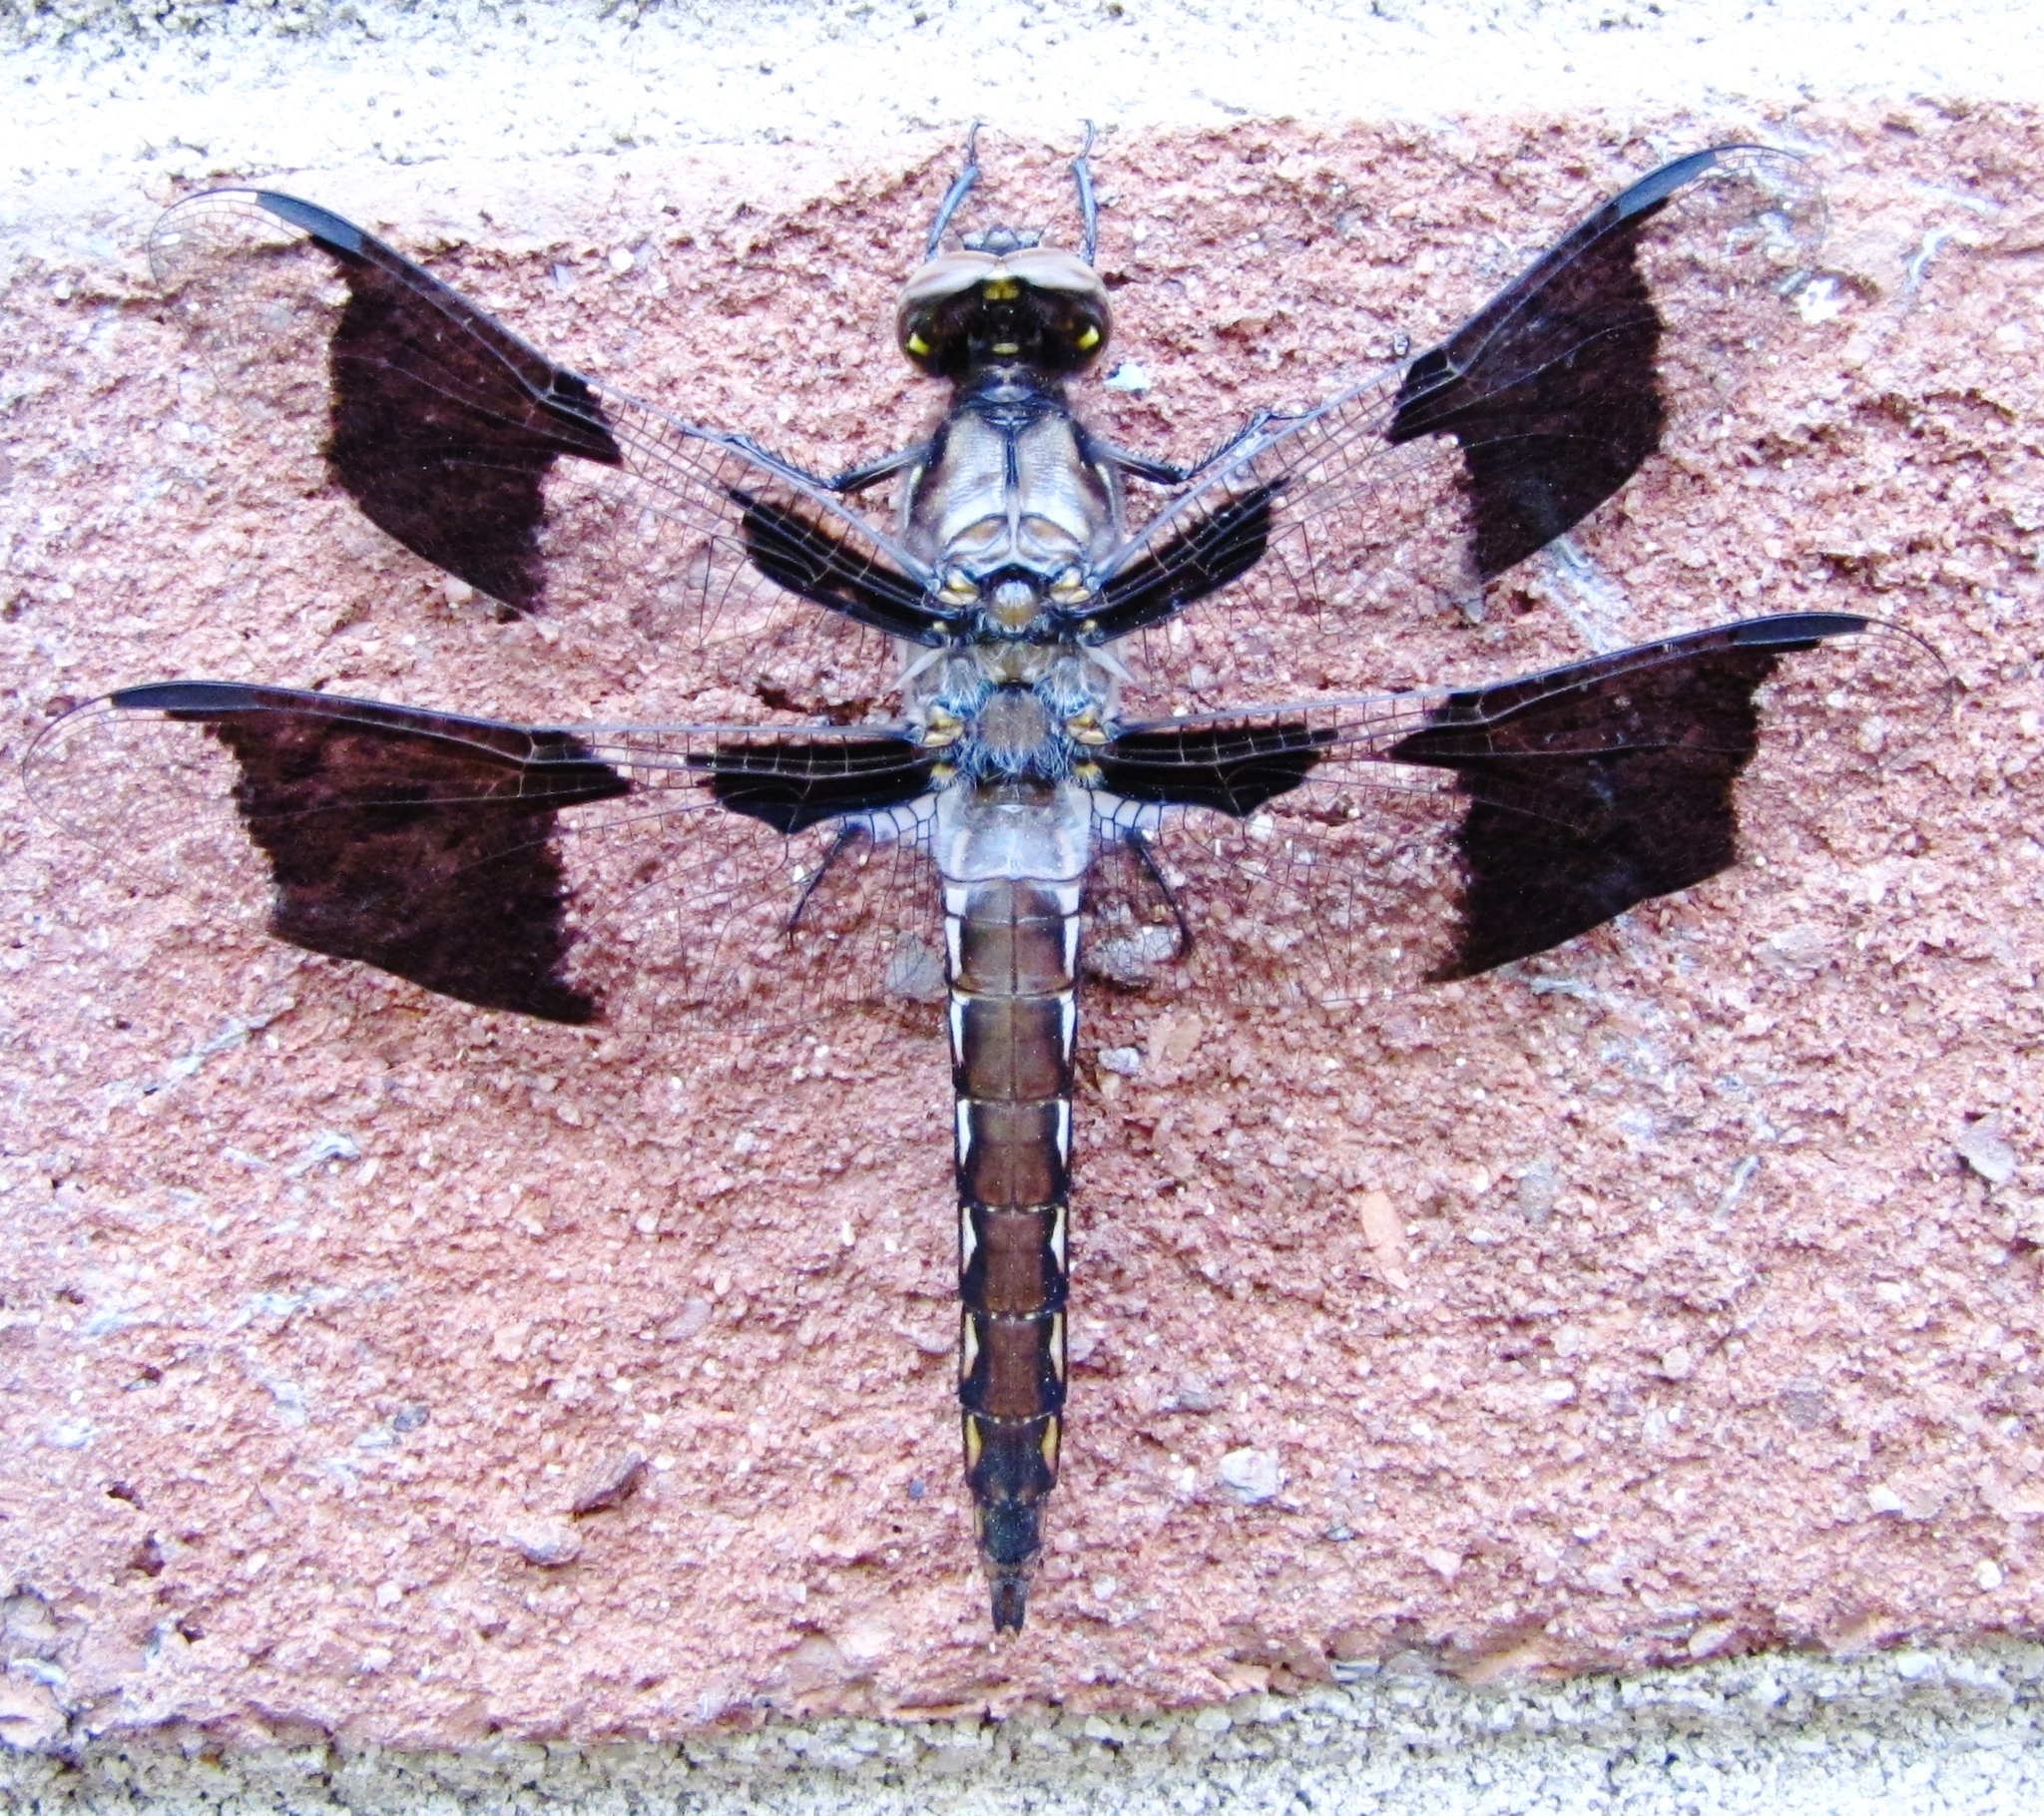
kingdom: Animalia
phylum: Arthropoda
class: Insecta
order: Odonata
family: Libellulidae
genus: Plathemis
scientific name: Plathemis lydia
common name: Common whitetail
